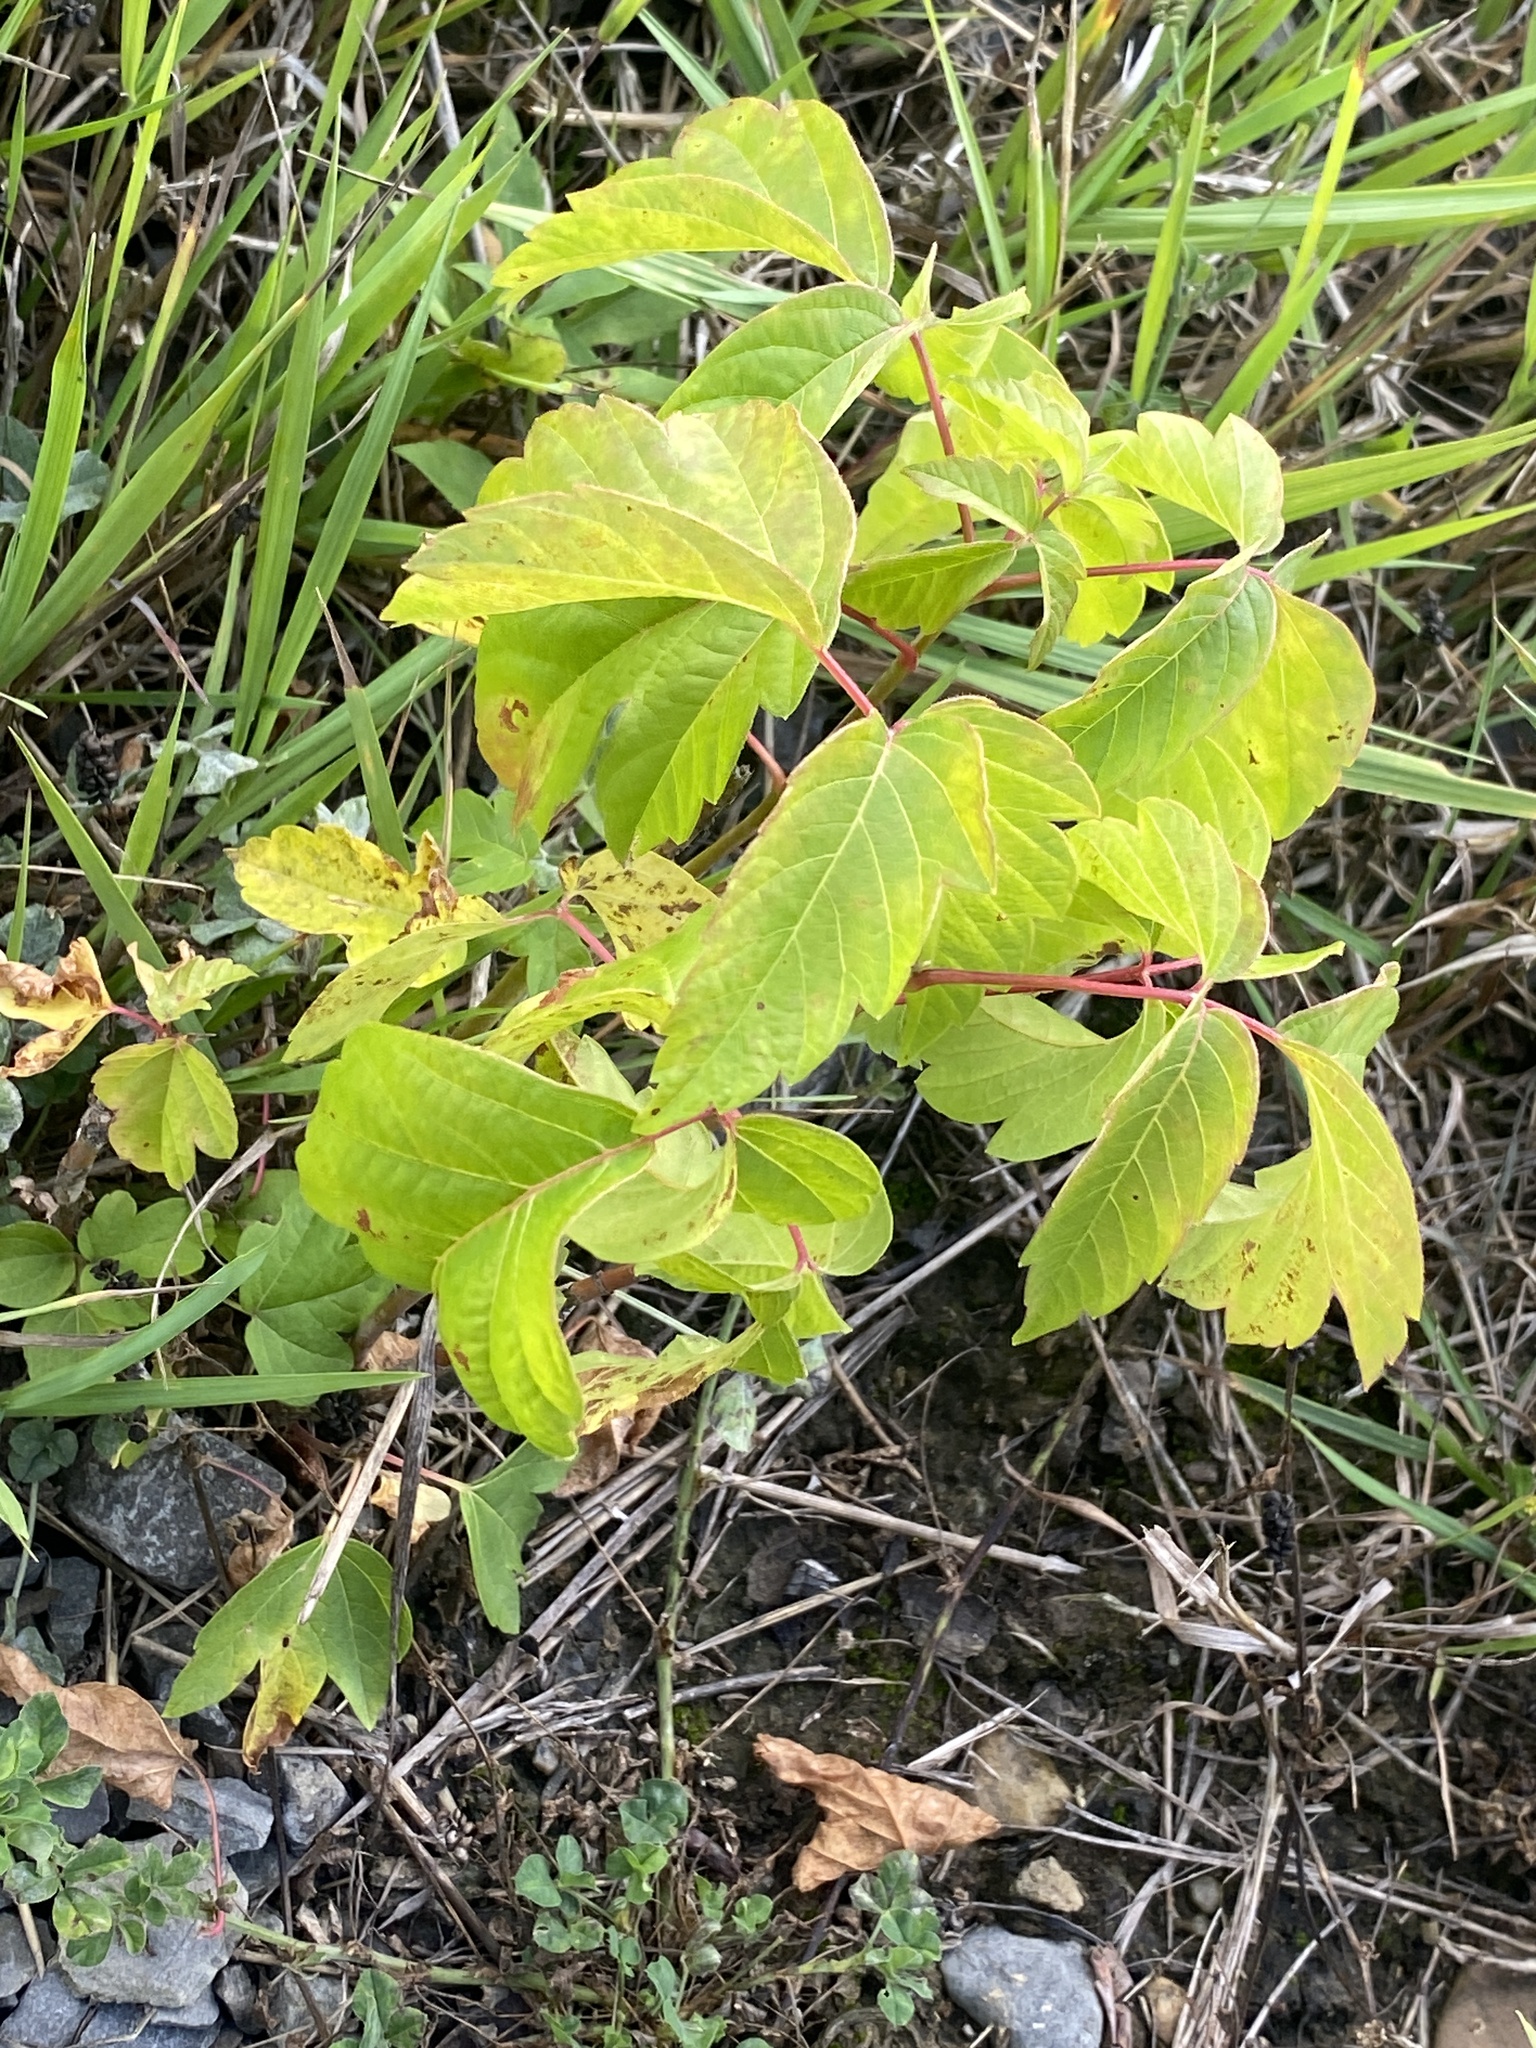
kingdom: Plantae
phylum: Tracheophyta
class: Magnoliopsida
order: Sapindales
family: Sapindaceae
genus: Acer
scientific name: Acer negundo
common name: Ashleaf maple
